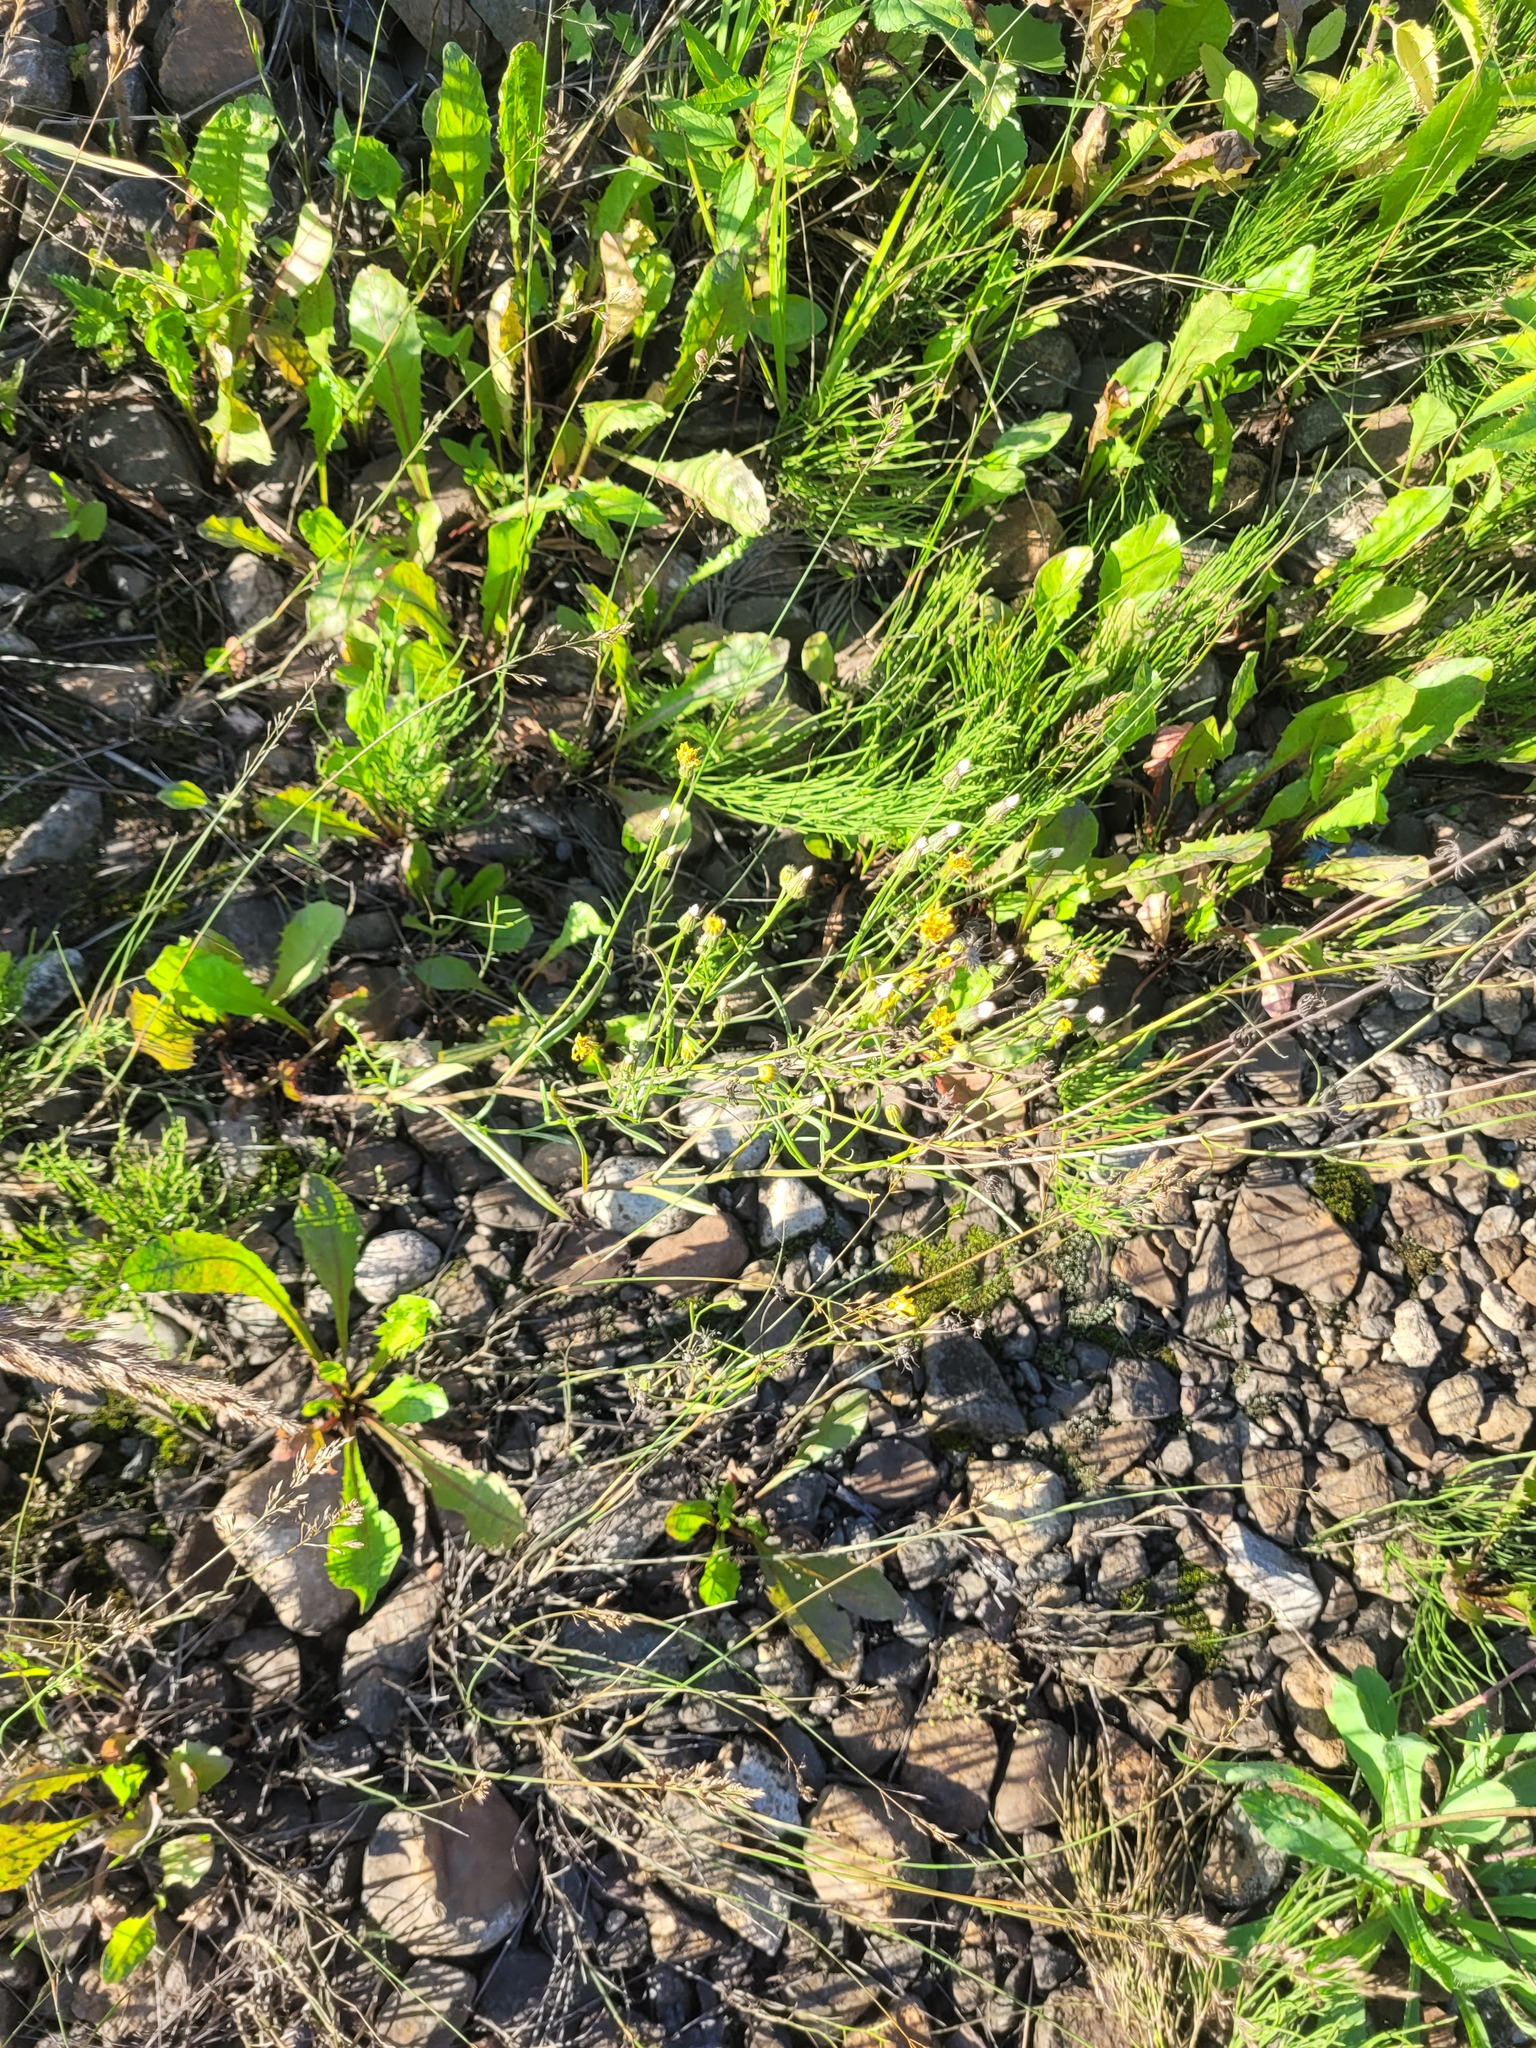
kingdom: Plantae
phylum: Tracheophyta
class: Magnoliopsida
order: Asterales
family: Asteraceae
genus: Crepis
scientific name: Crepis tectorum
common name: Narrow-leaved hawk's-beard
